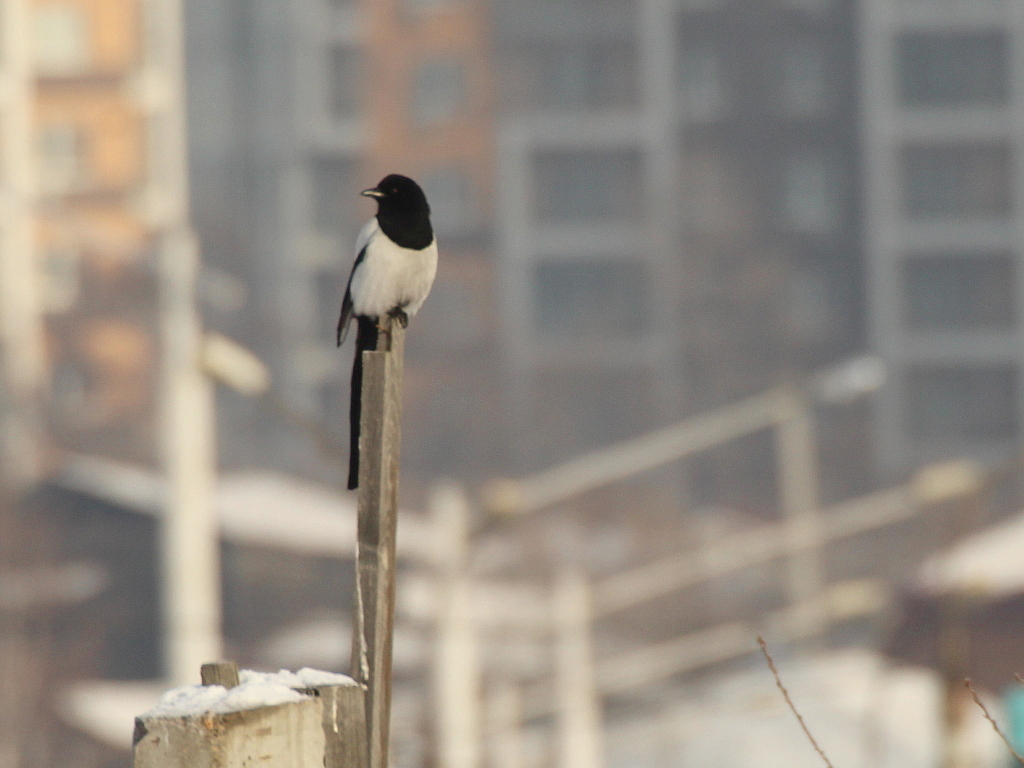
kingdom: Animalia
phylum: Chordata
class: Aves
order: Passeriformes
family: Corvidae
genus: Pica
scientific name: Pica pica
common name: Eurasian magpie
